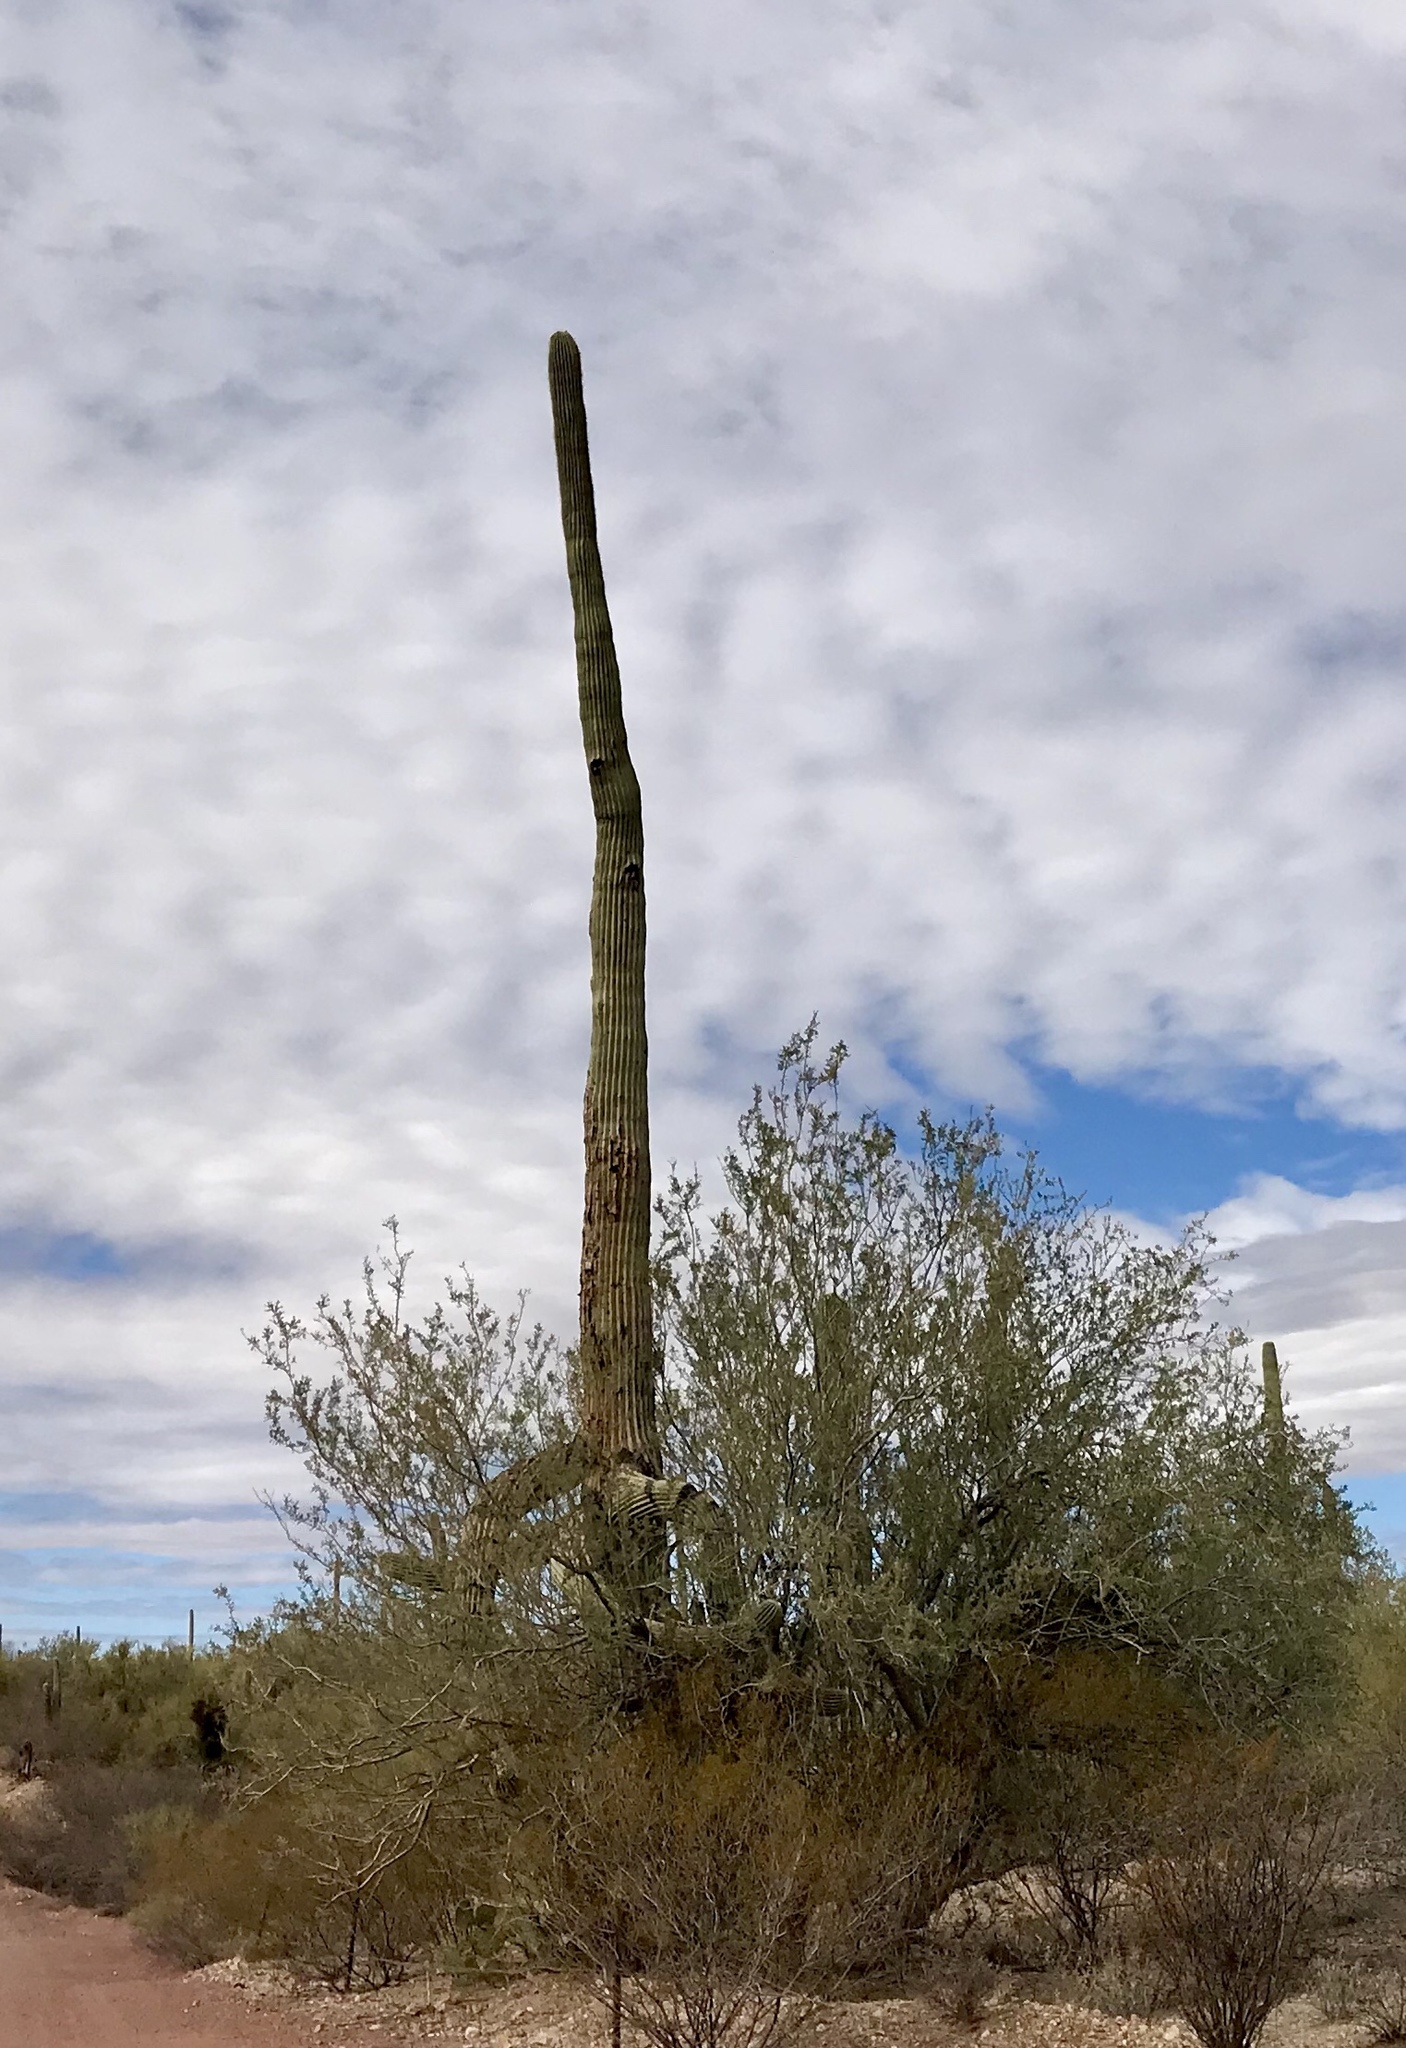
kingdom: Plantae
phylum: Tracheophyta
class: Magnoliopsida
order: Caryophyllales
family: Cactaceae
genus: Carnegiea
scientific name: Carnegiea gigantea
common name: Saguaro
